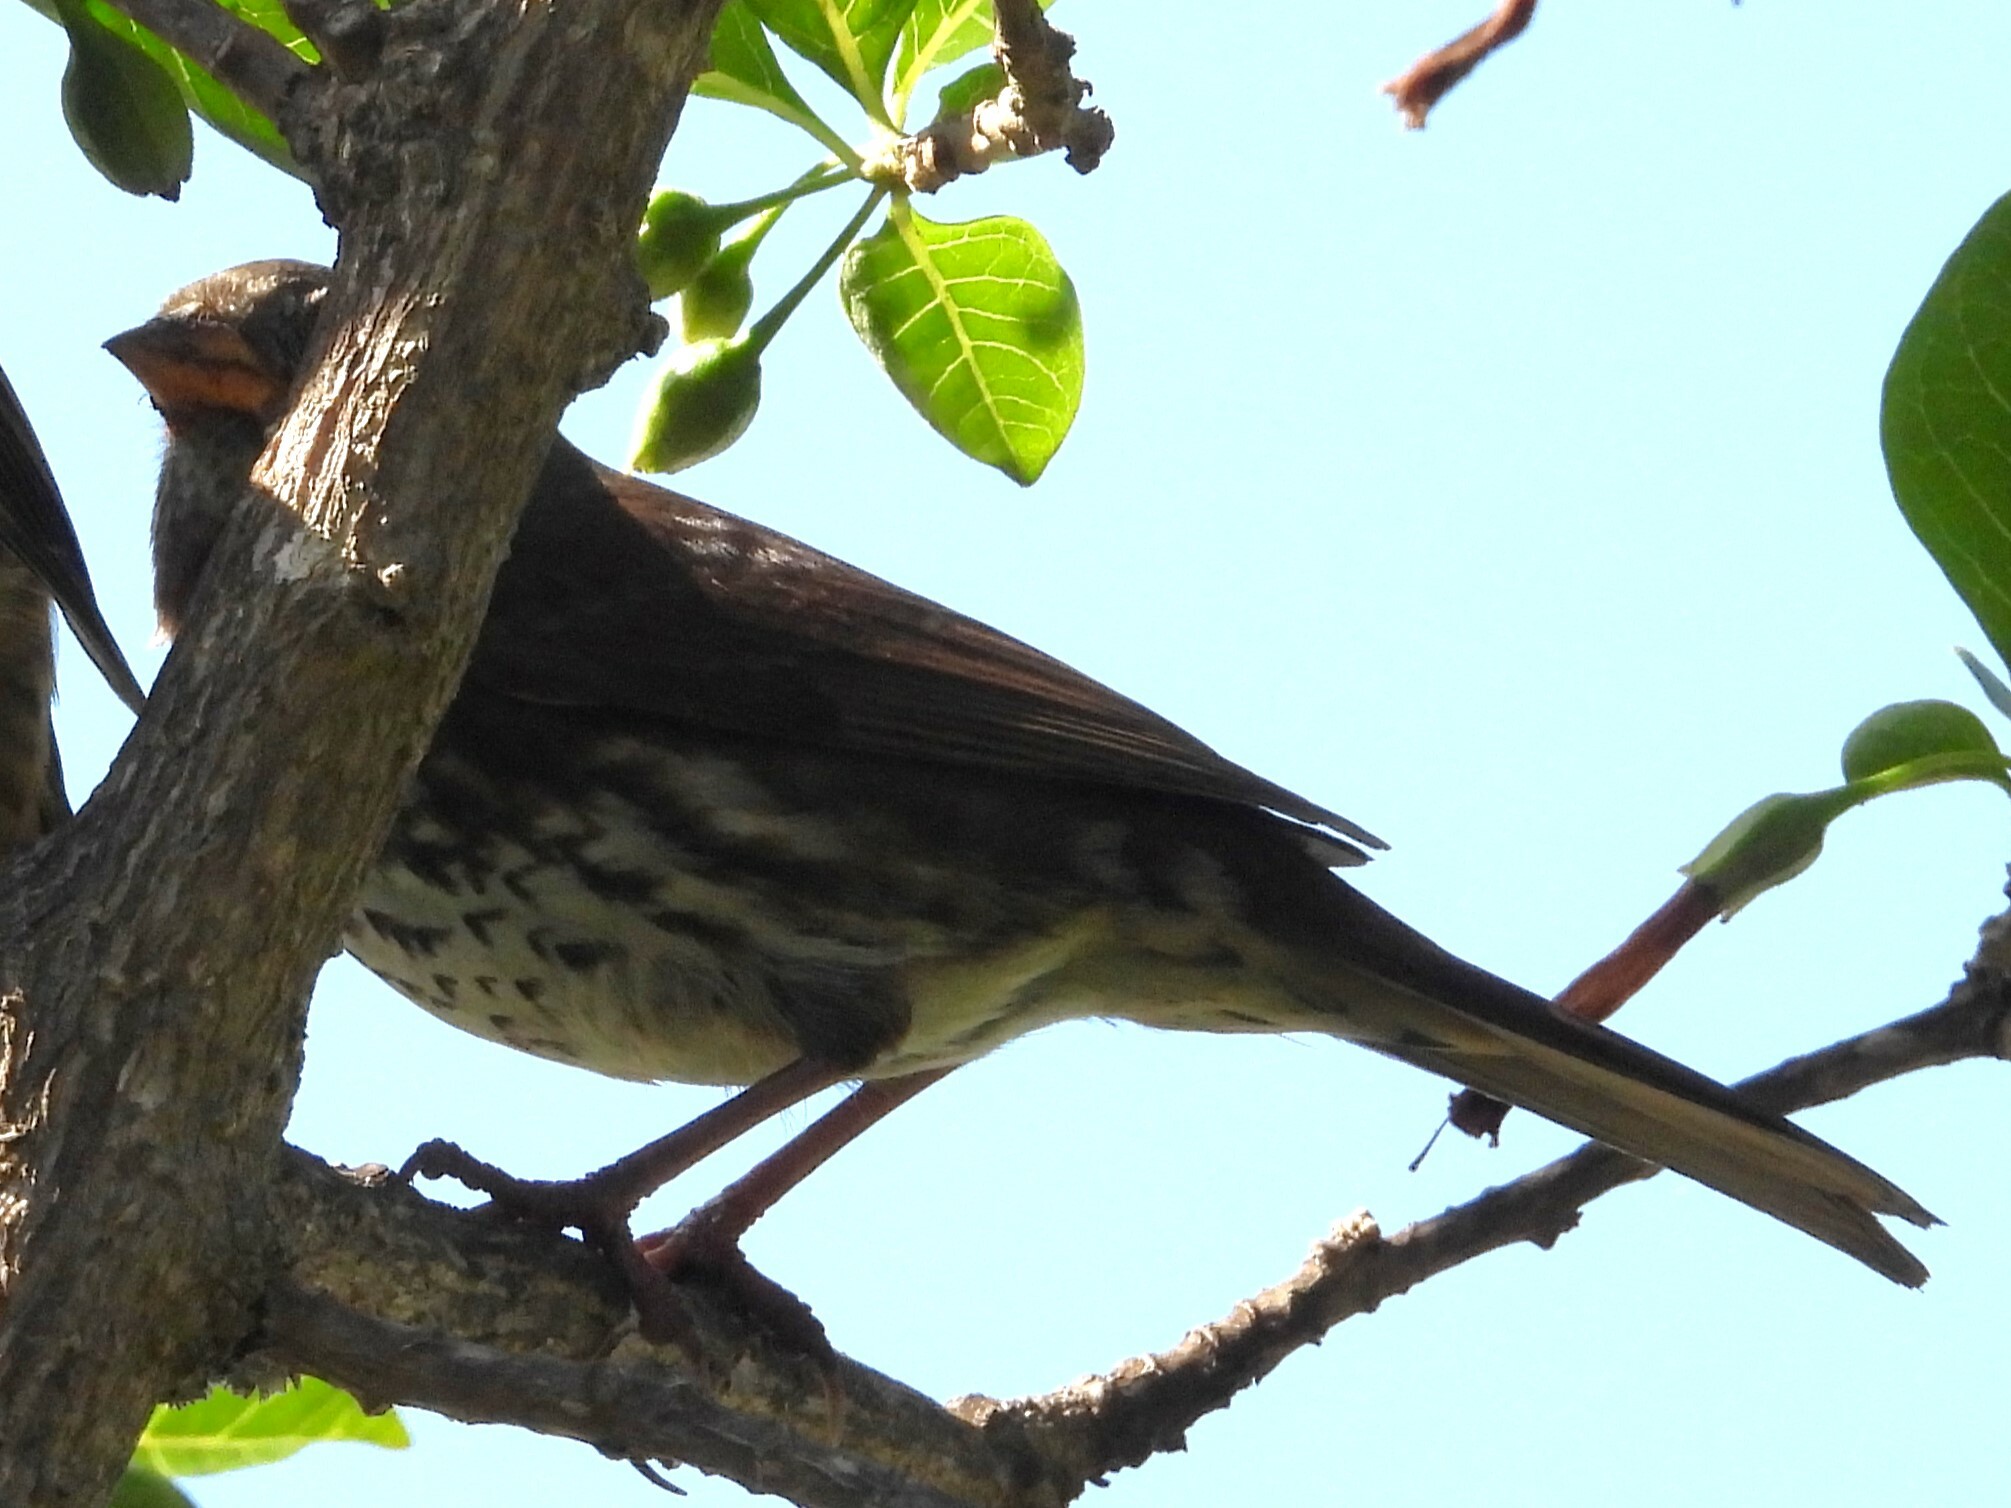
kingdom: Animalia
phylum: Chordata
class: Aves
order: Passeriformes
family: Passerellidae
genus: Passerella
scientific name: Passerella iliaca
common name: Fox sparrow
